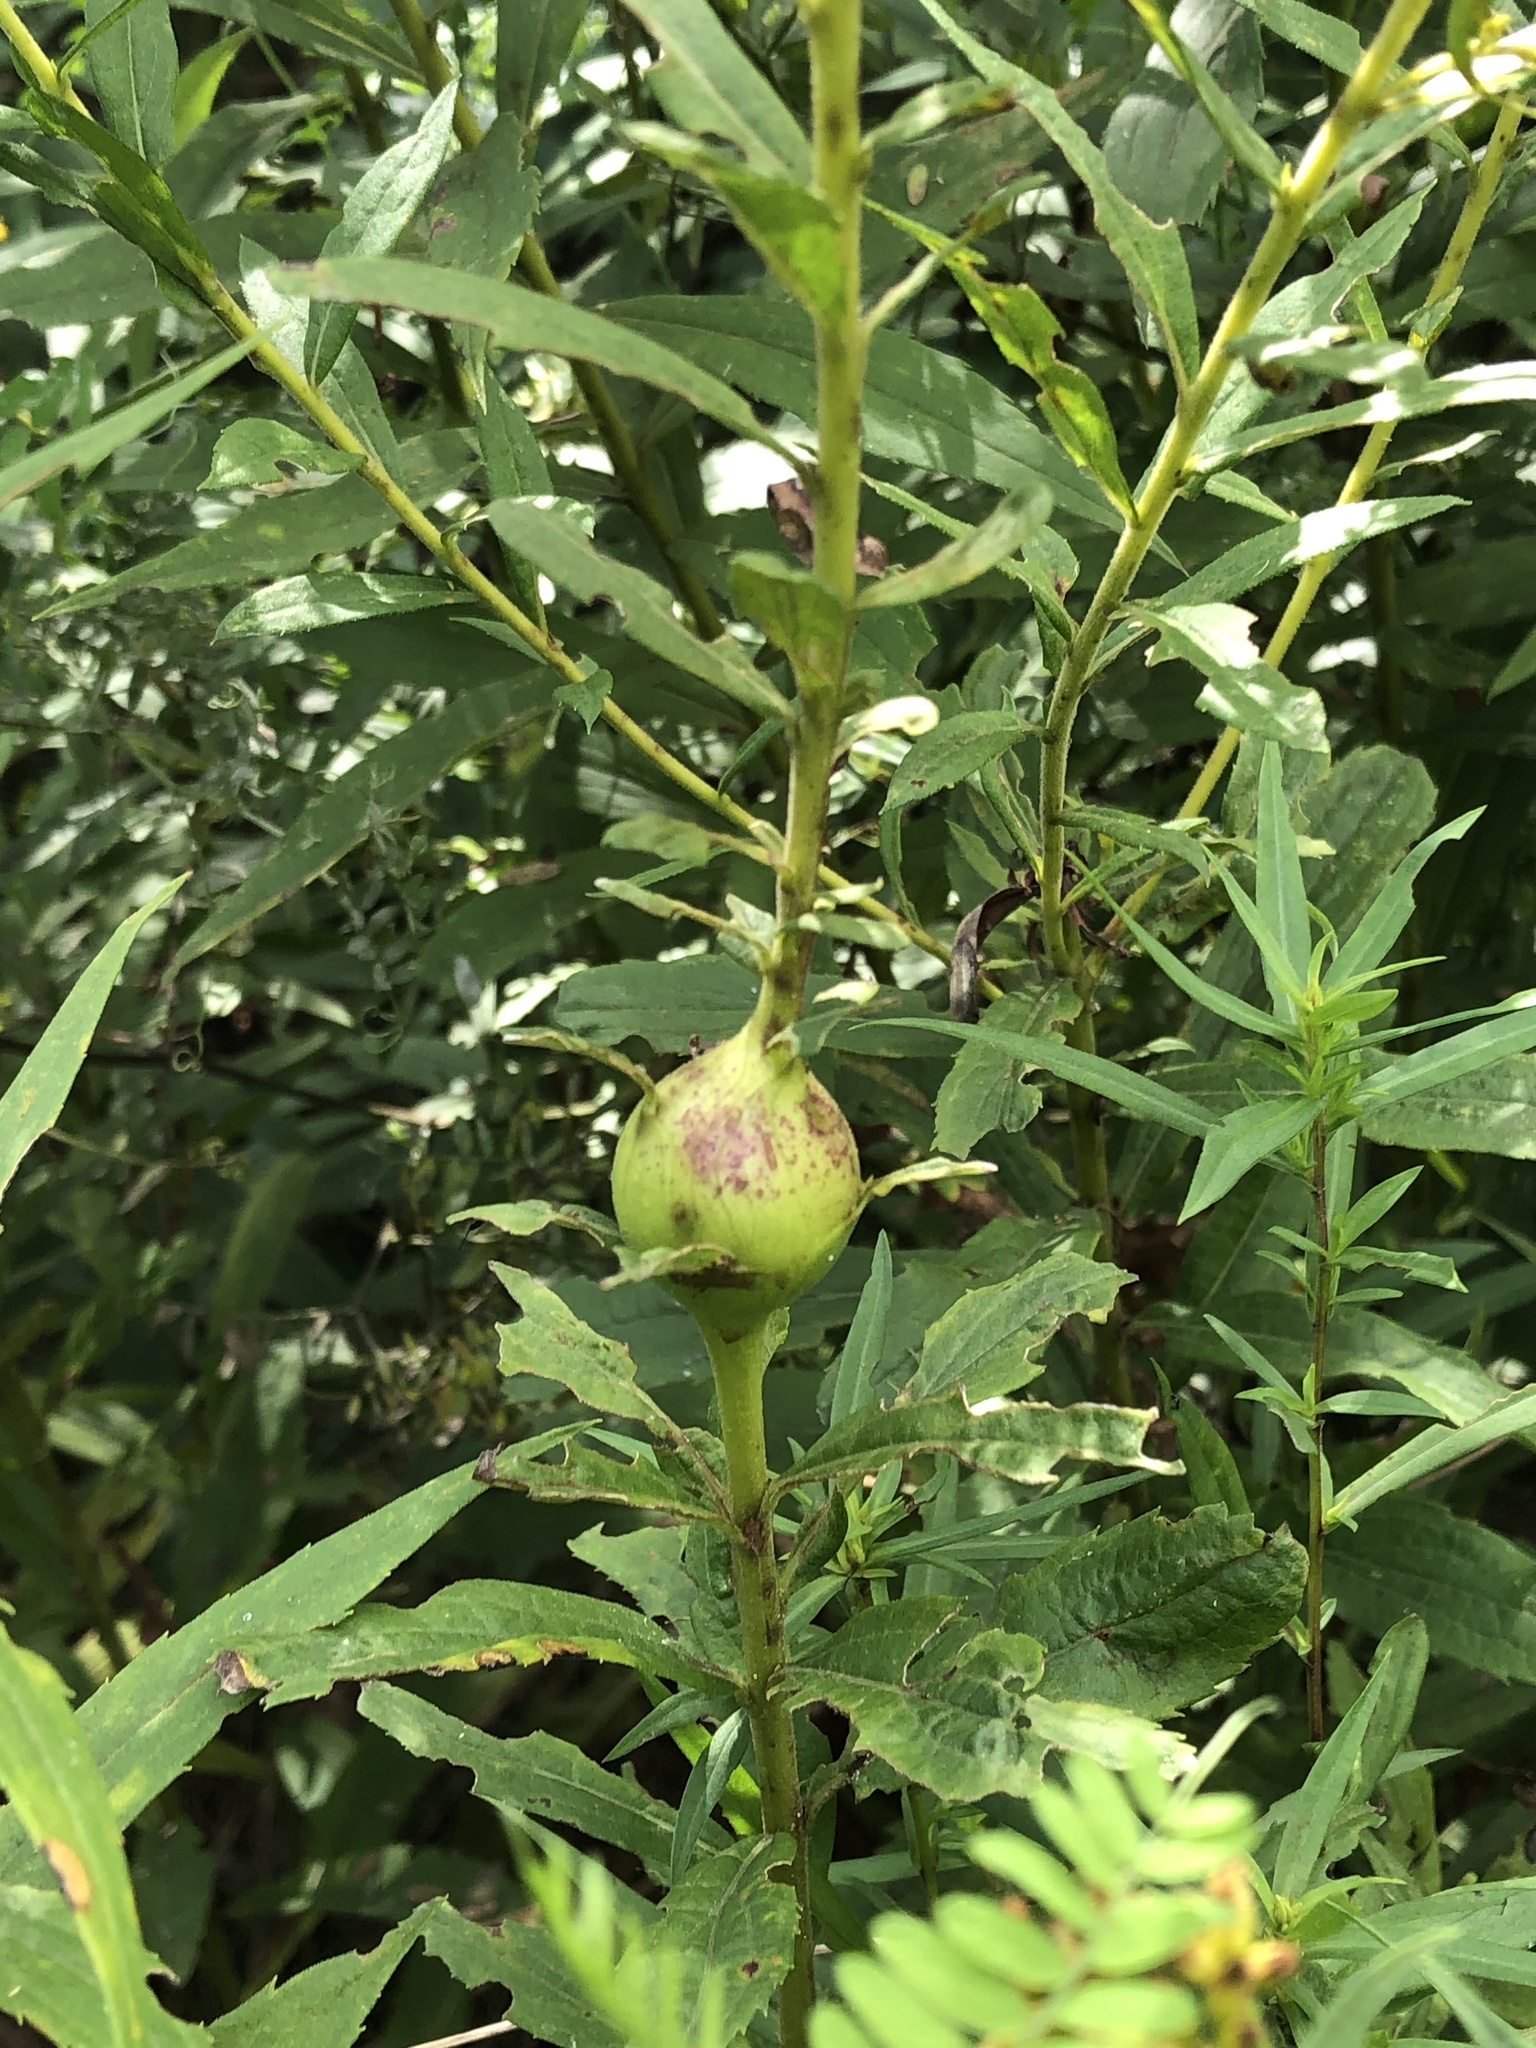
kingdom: Animalia
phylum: Arthropoda
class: Insecta
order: Diptera
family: Tephritidae
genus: Eurosta
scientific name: Eurosta solidaginis
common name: Goldenrod gall fly
